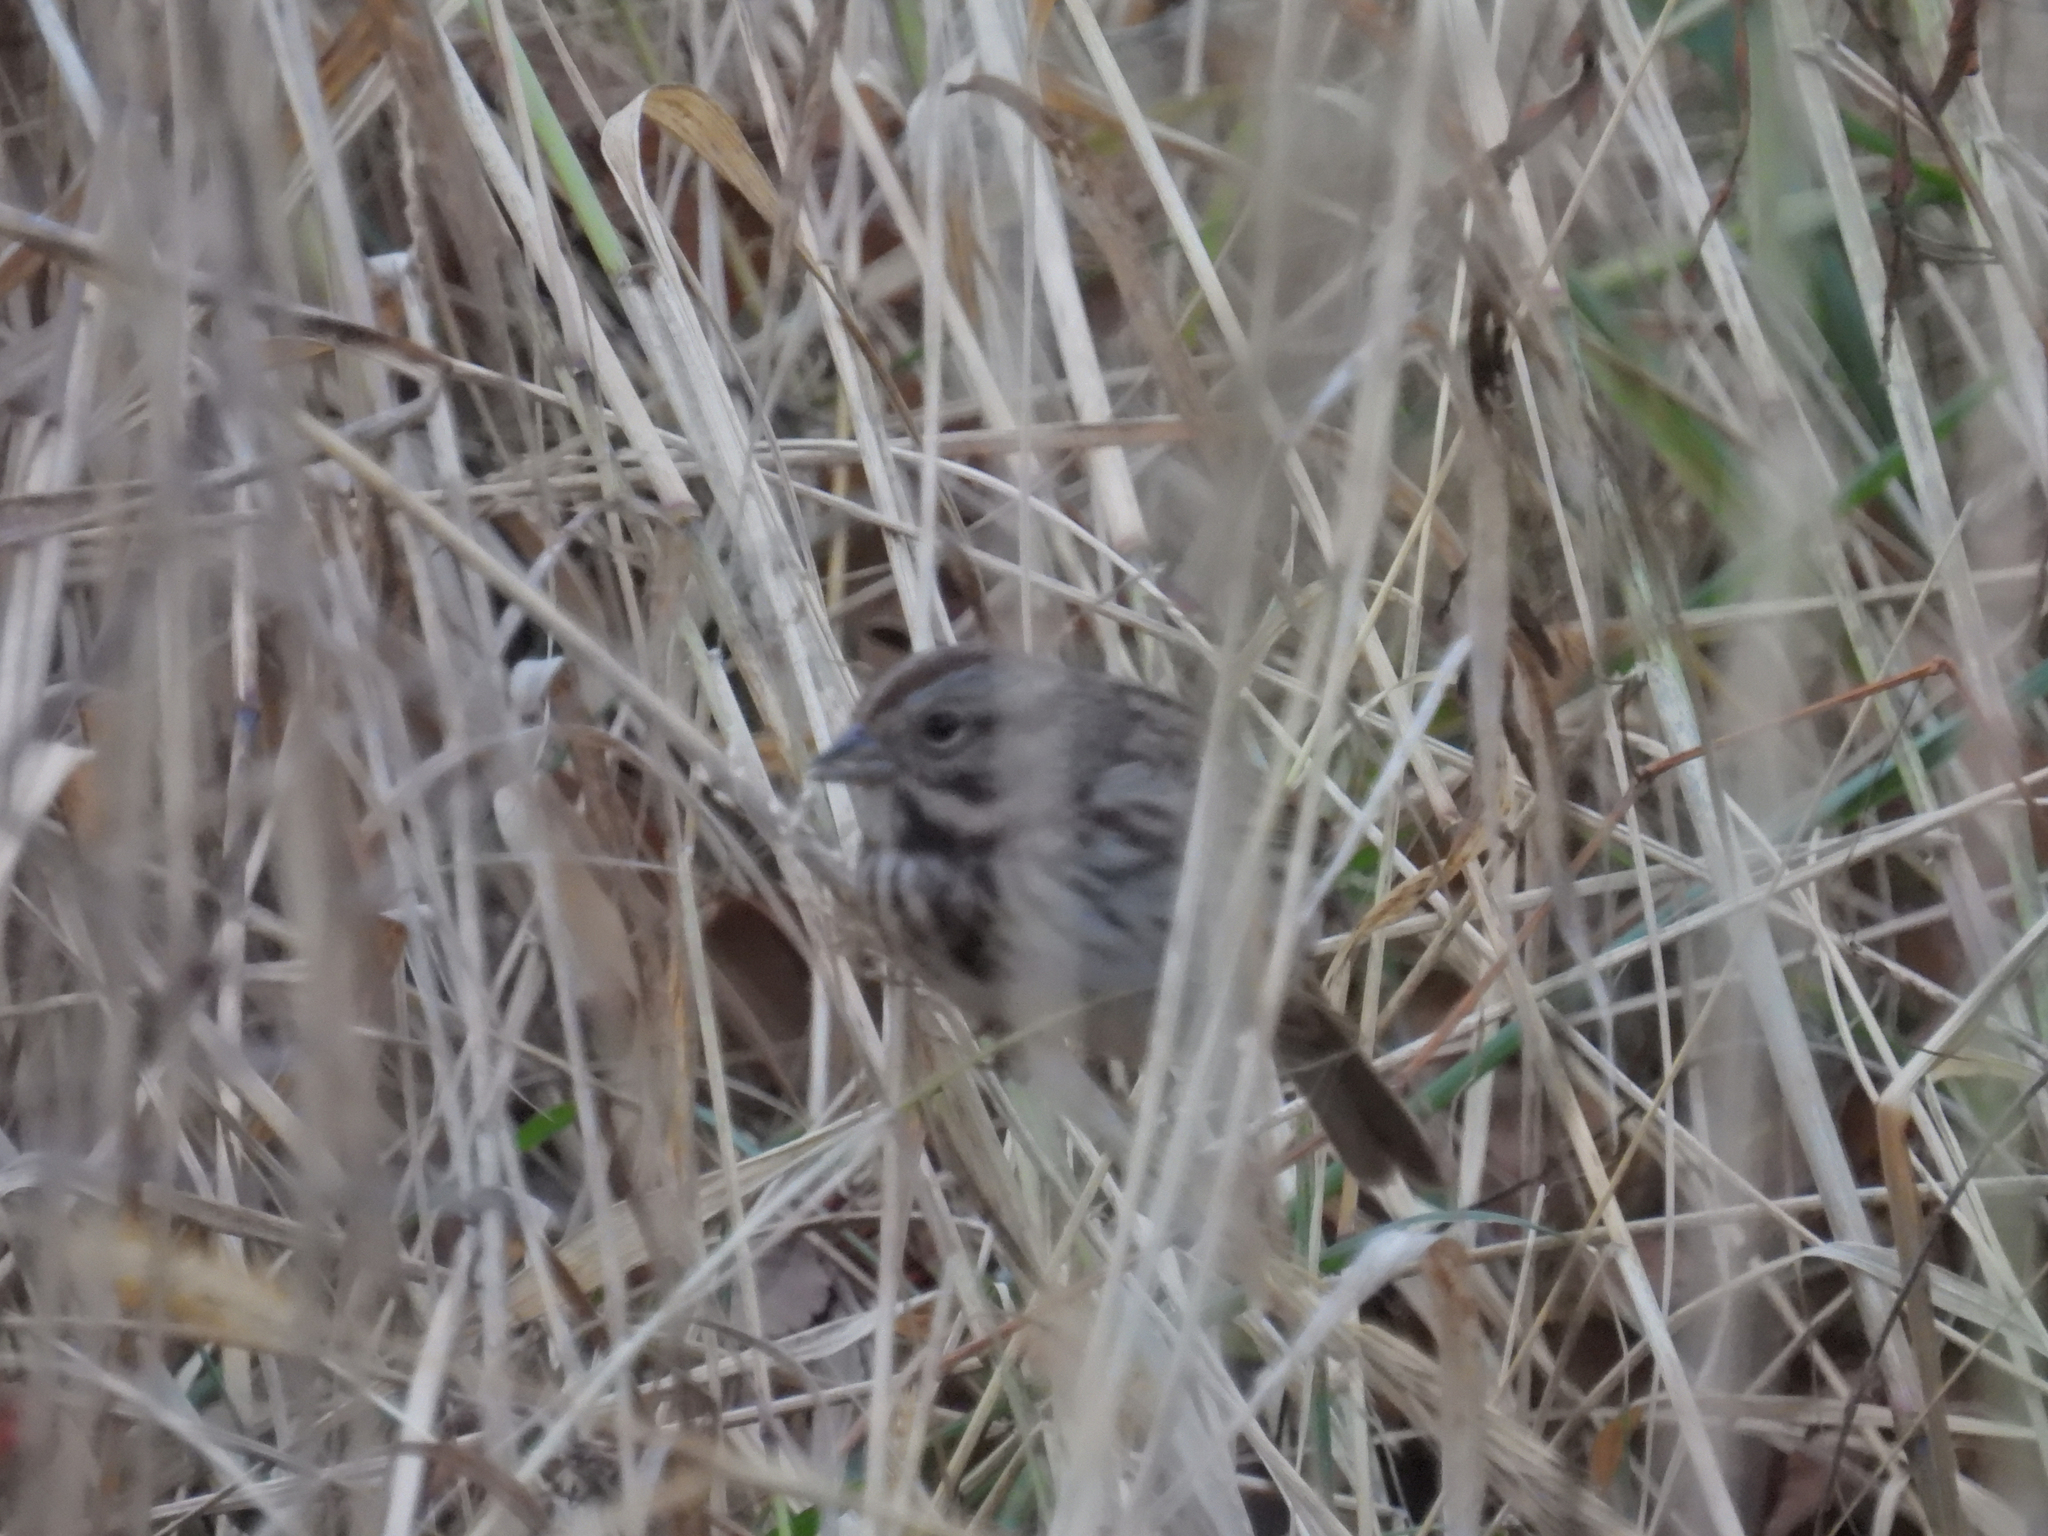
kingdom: Animalia
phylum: Chordata
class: Aves
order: Passeriformes
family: Passerellidae
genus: Melospiza
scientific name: Melospiza melodia
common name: Song sparrow
